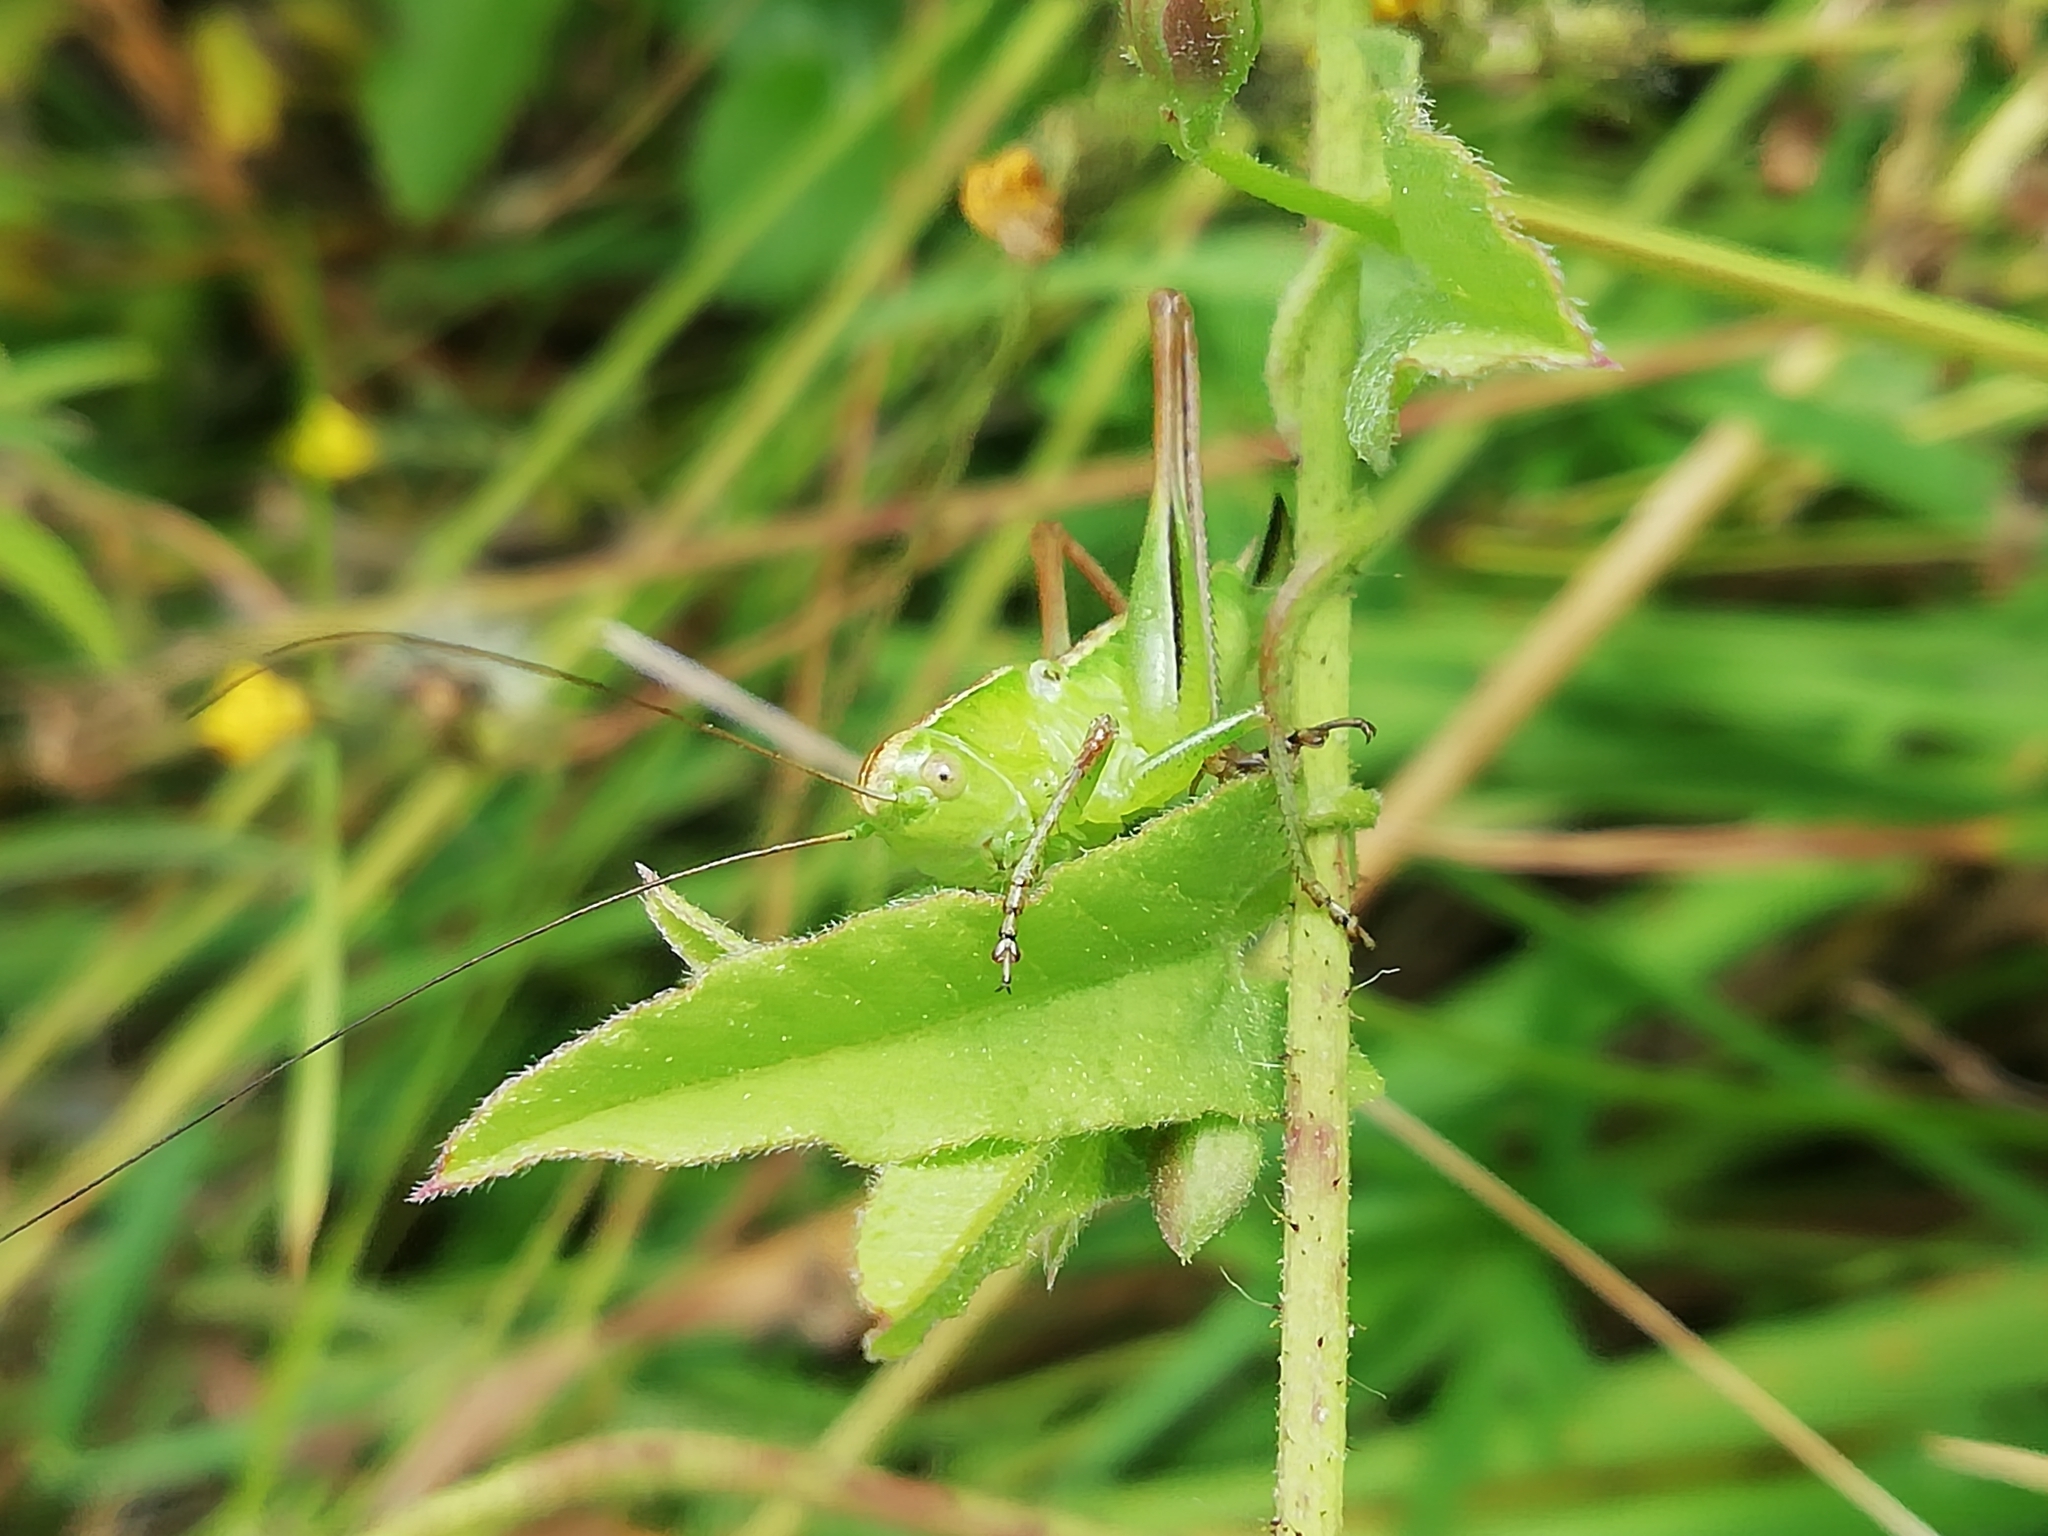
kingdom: Animalia
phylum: Arthropoda
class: Insecta
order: Orthoptera
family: Tettigoniidae
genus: Bicolorana
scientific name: Bicolorana bicolor
